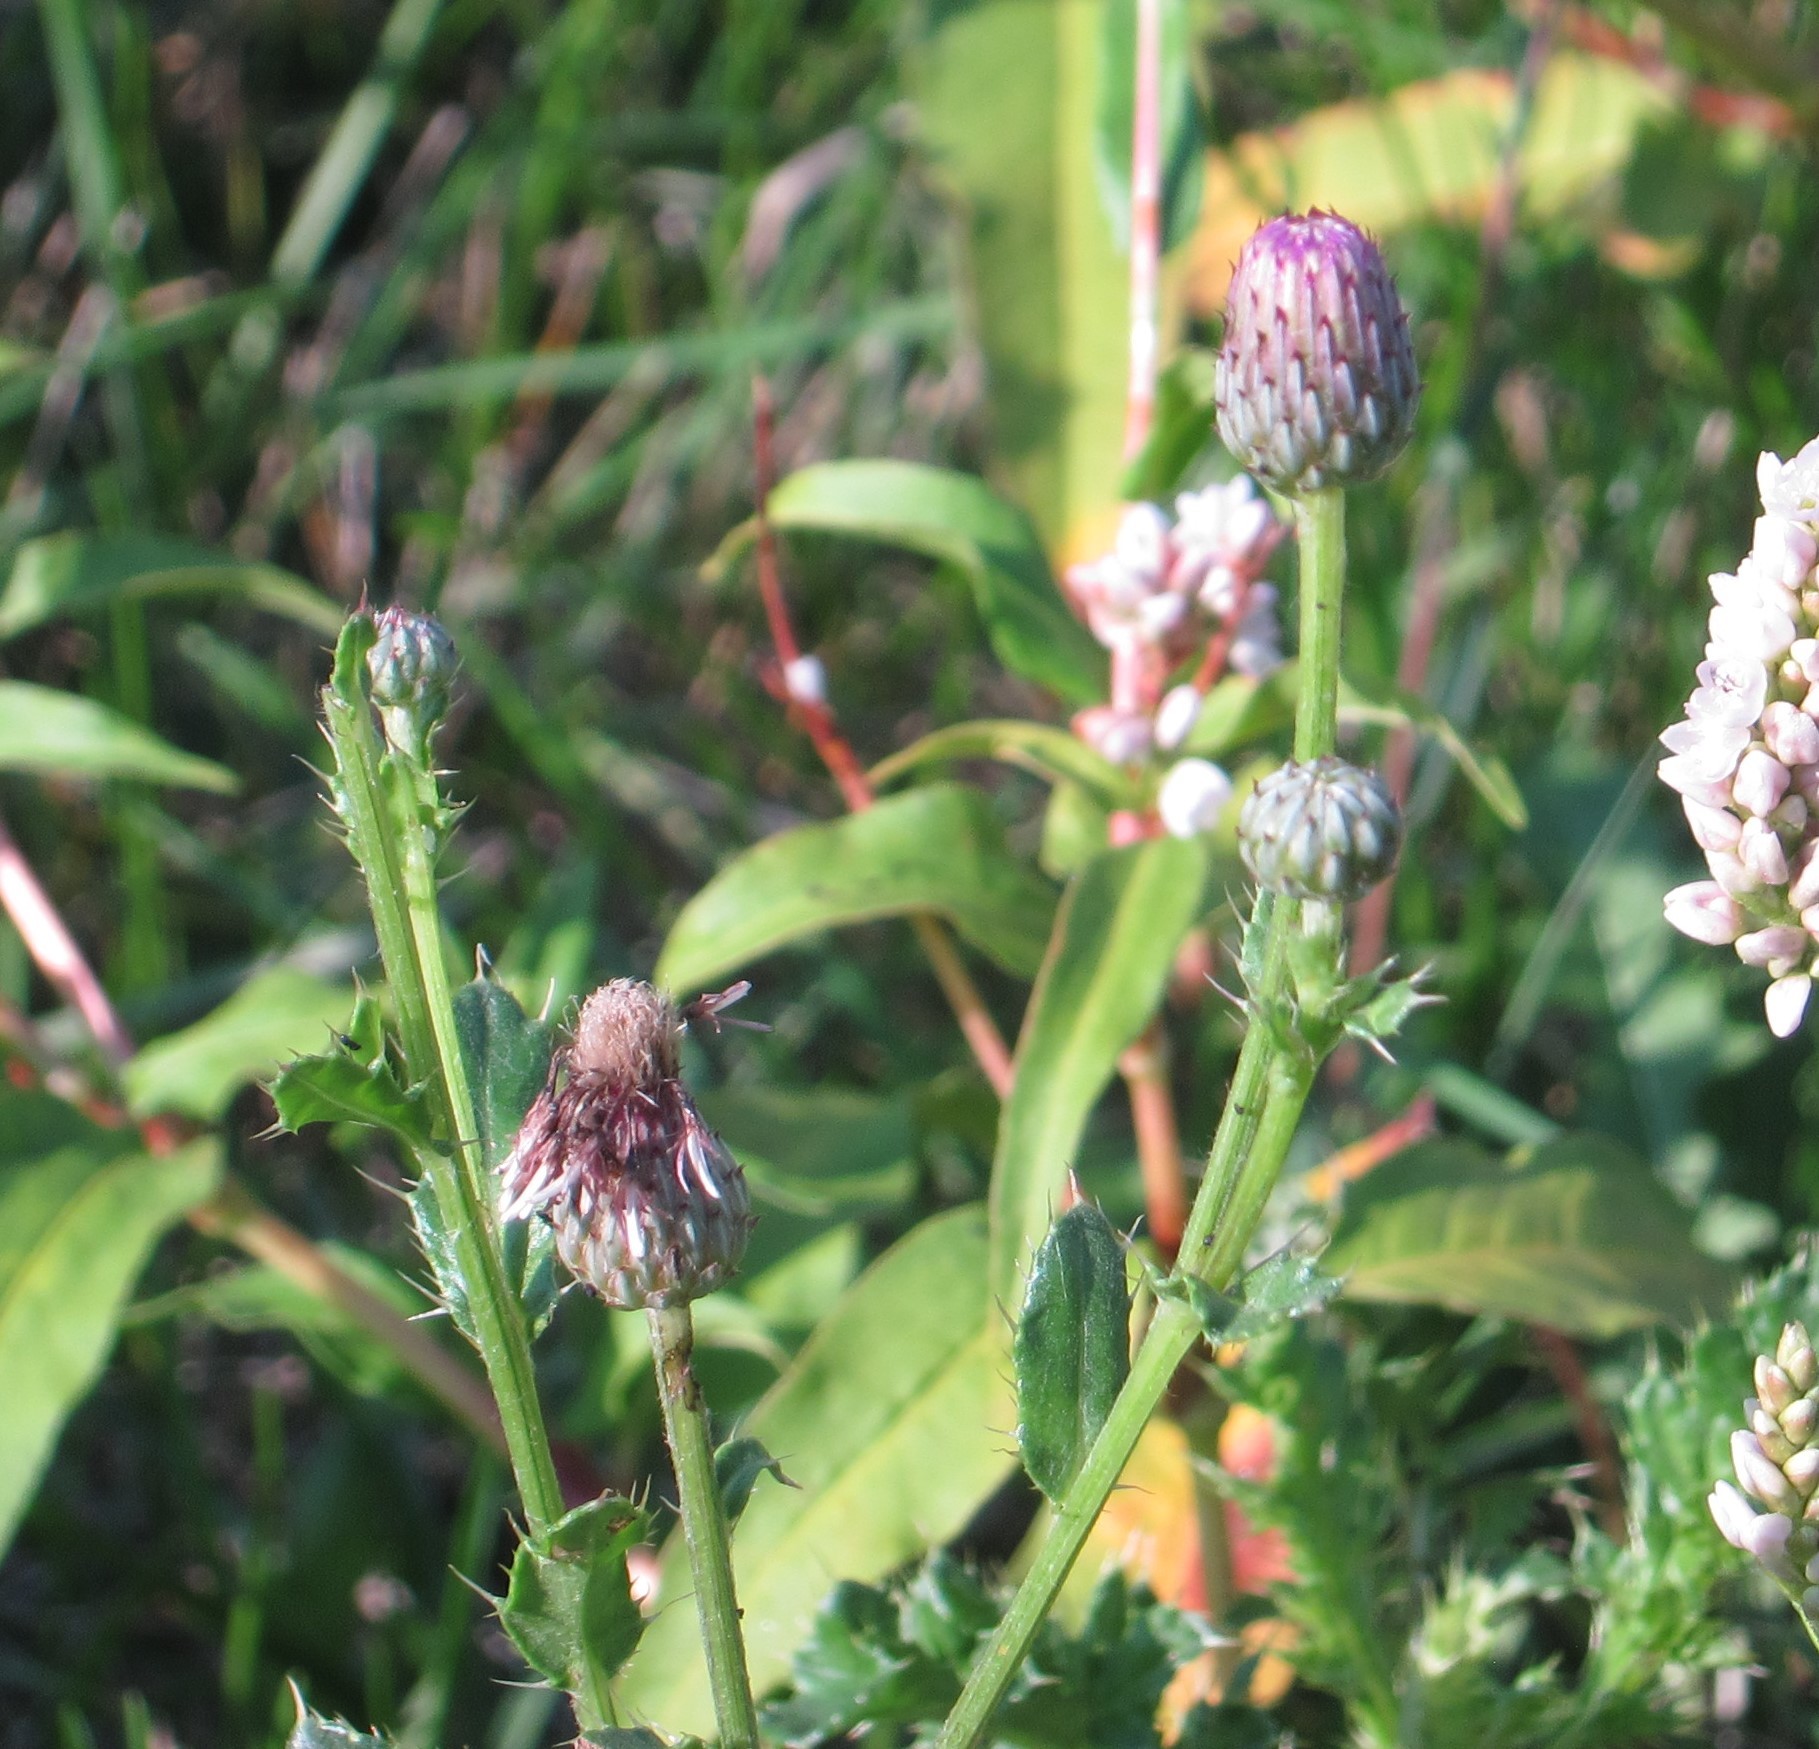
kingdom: Plantae
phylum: Tracheophyta
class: Magnoliopsida
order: Asterales
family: Asteraceae
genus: Cirsium
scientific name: Cirsium arvense
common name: Creeping thistle
